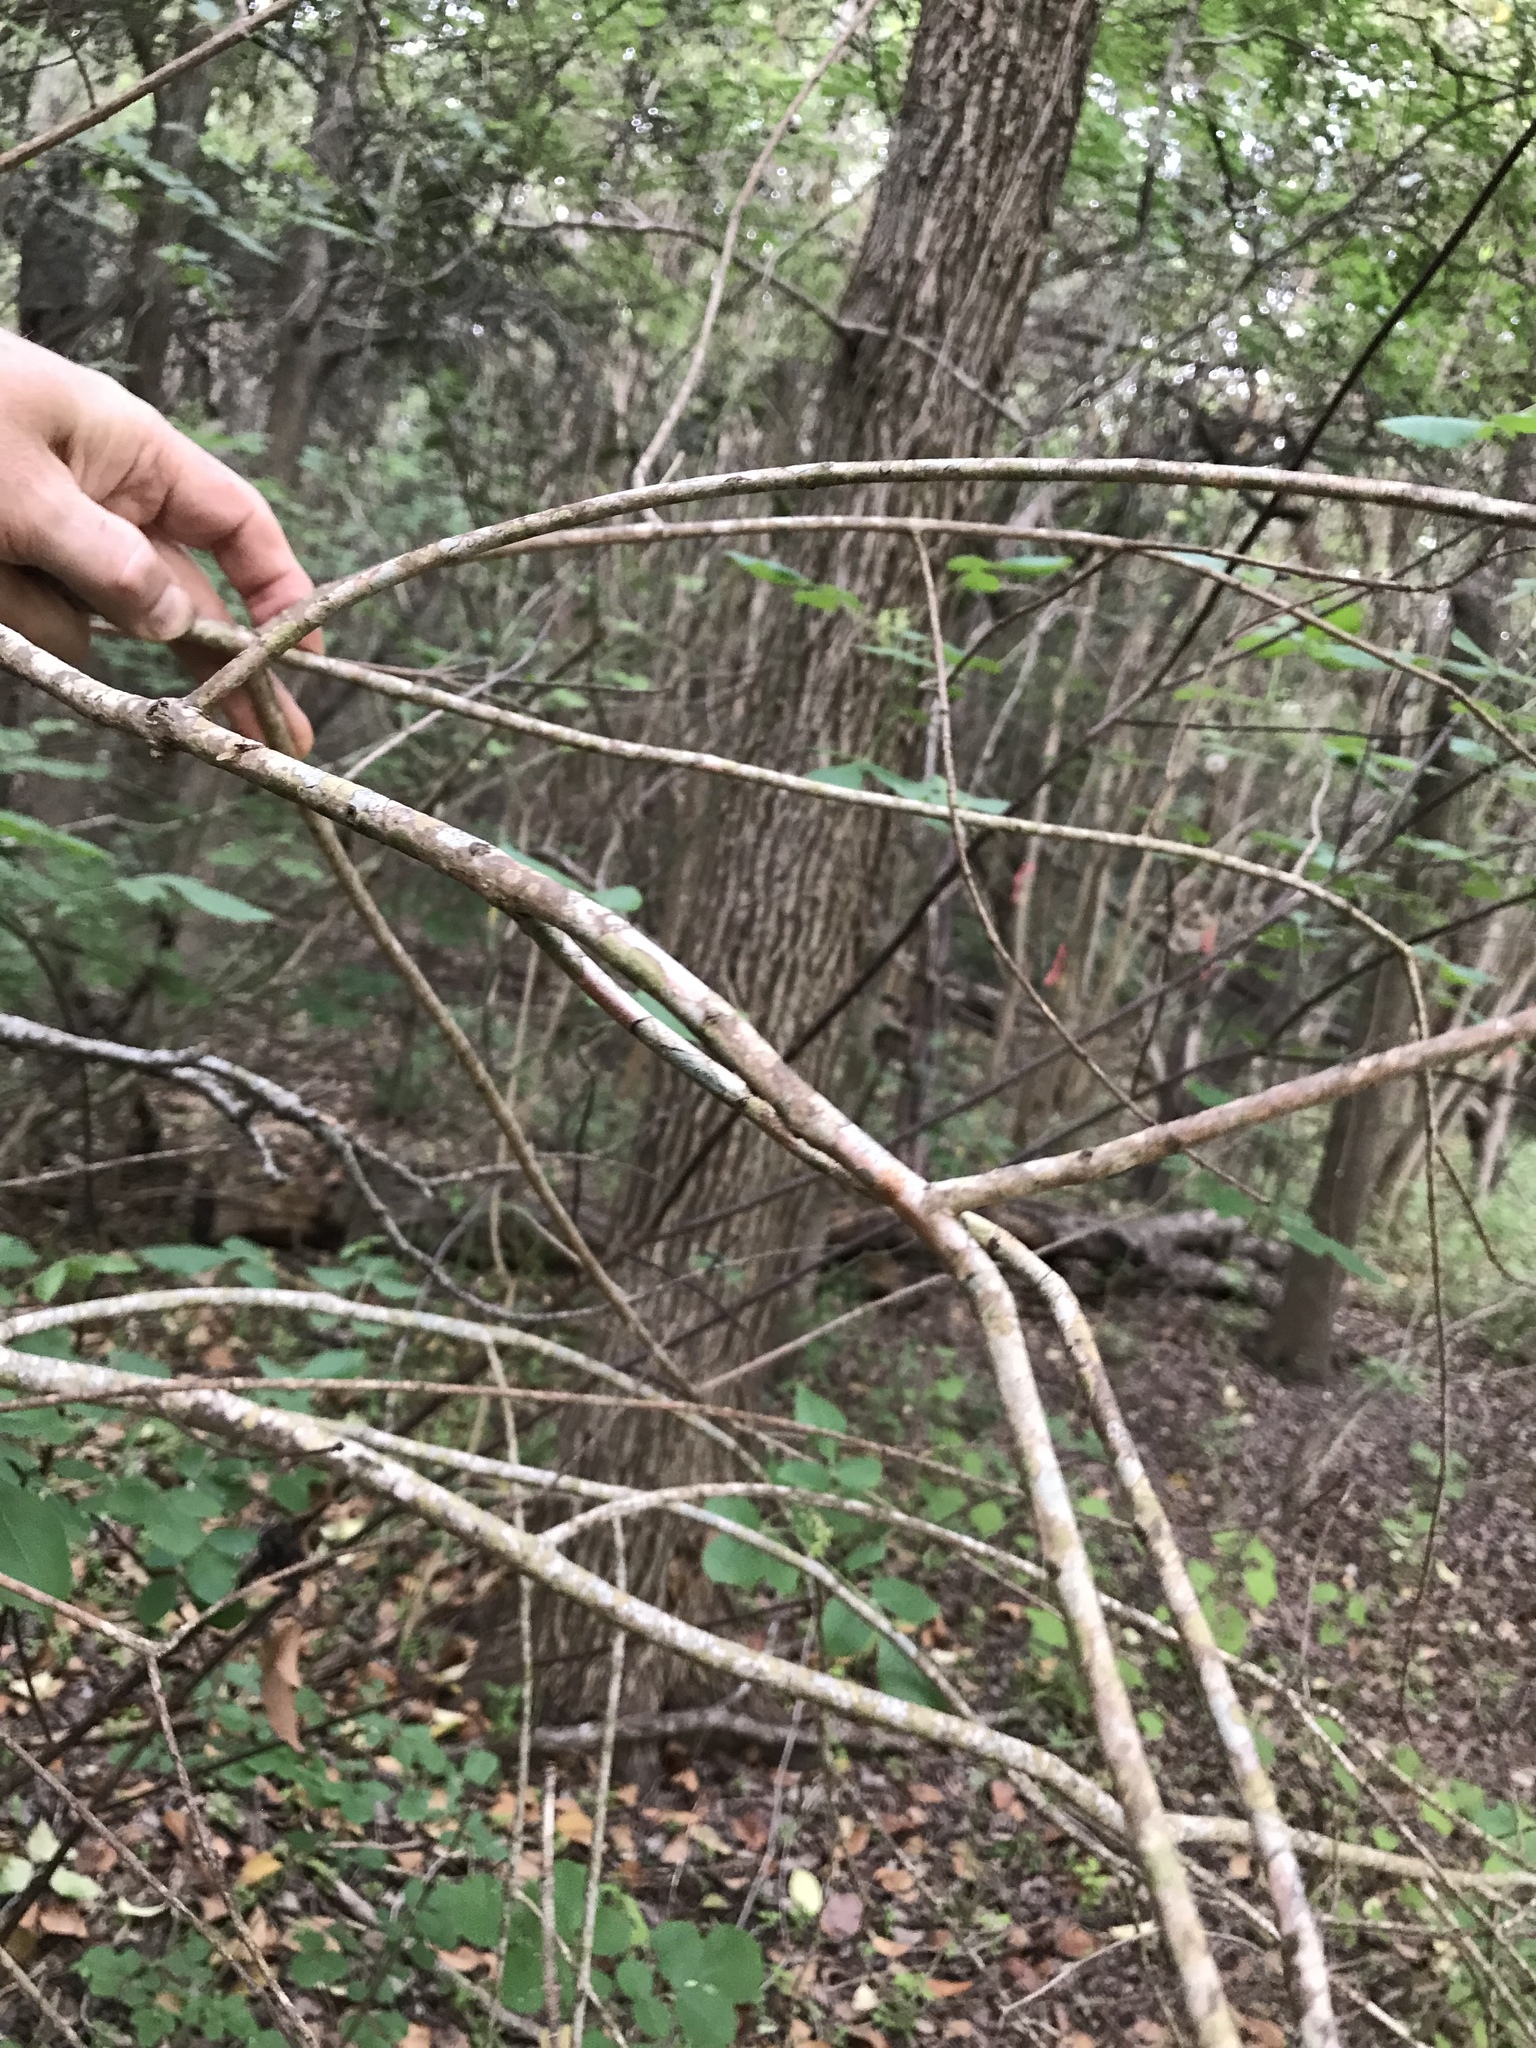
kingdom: Plantae
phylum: Tracheophyta
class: Magnoliopsida
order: Lamiales
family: Oleaceae
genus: Fraxinus
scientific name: Fraxinus albicans
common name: Texas ash
